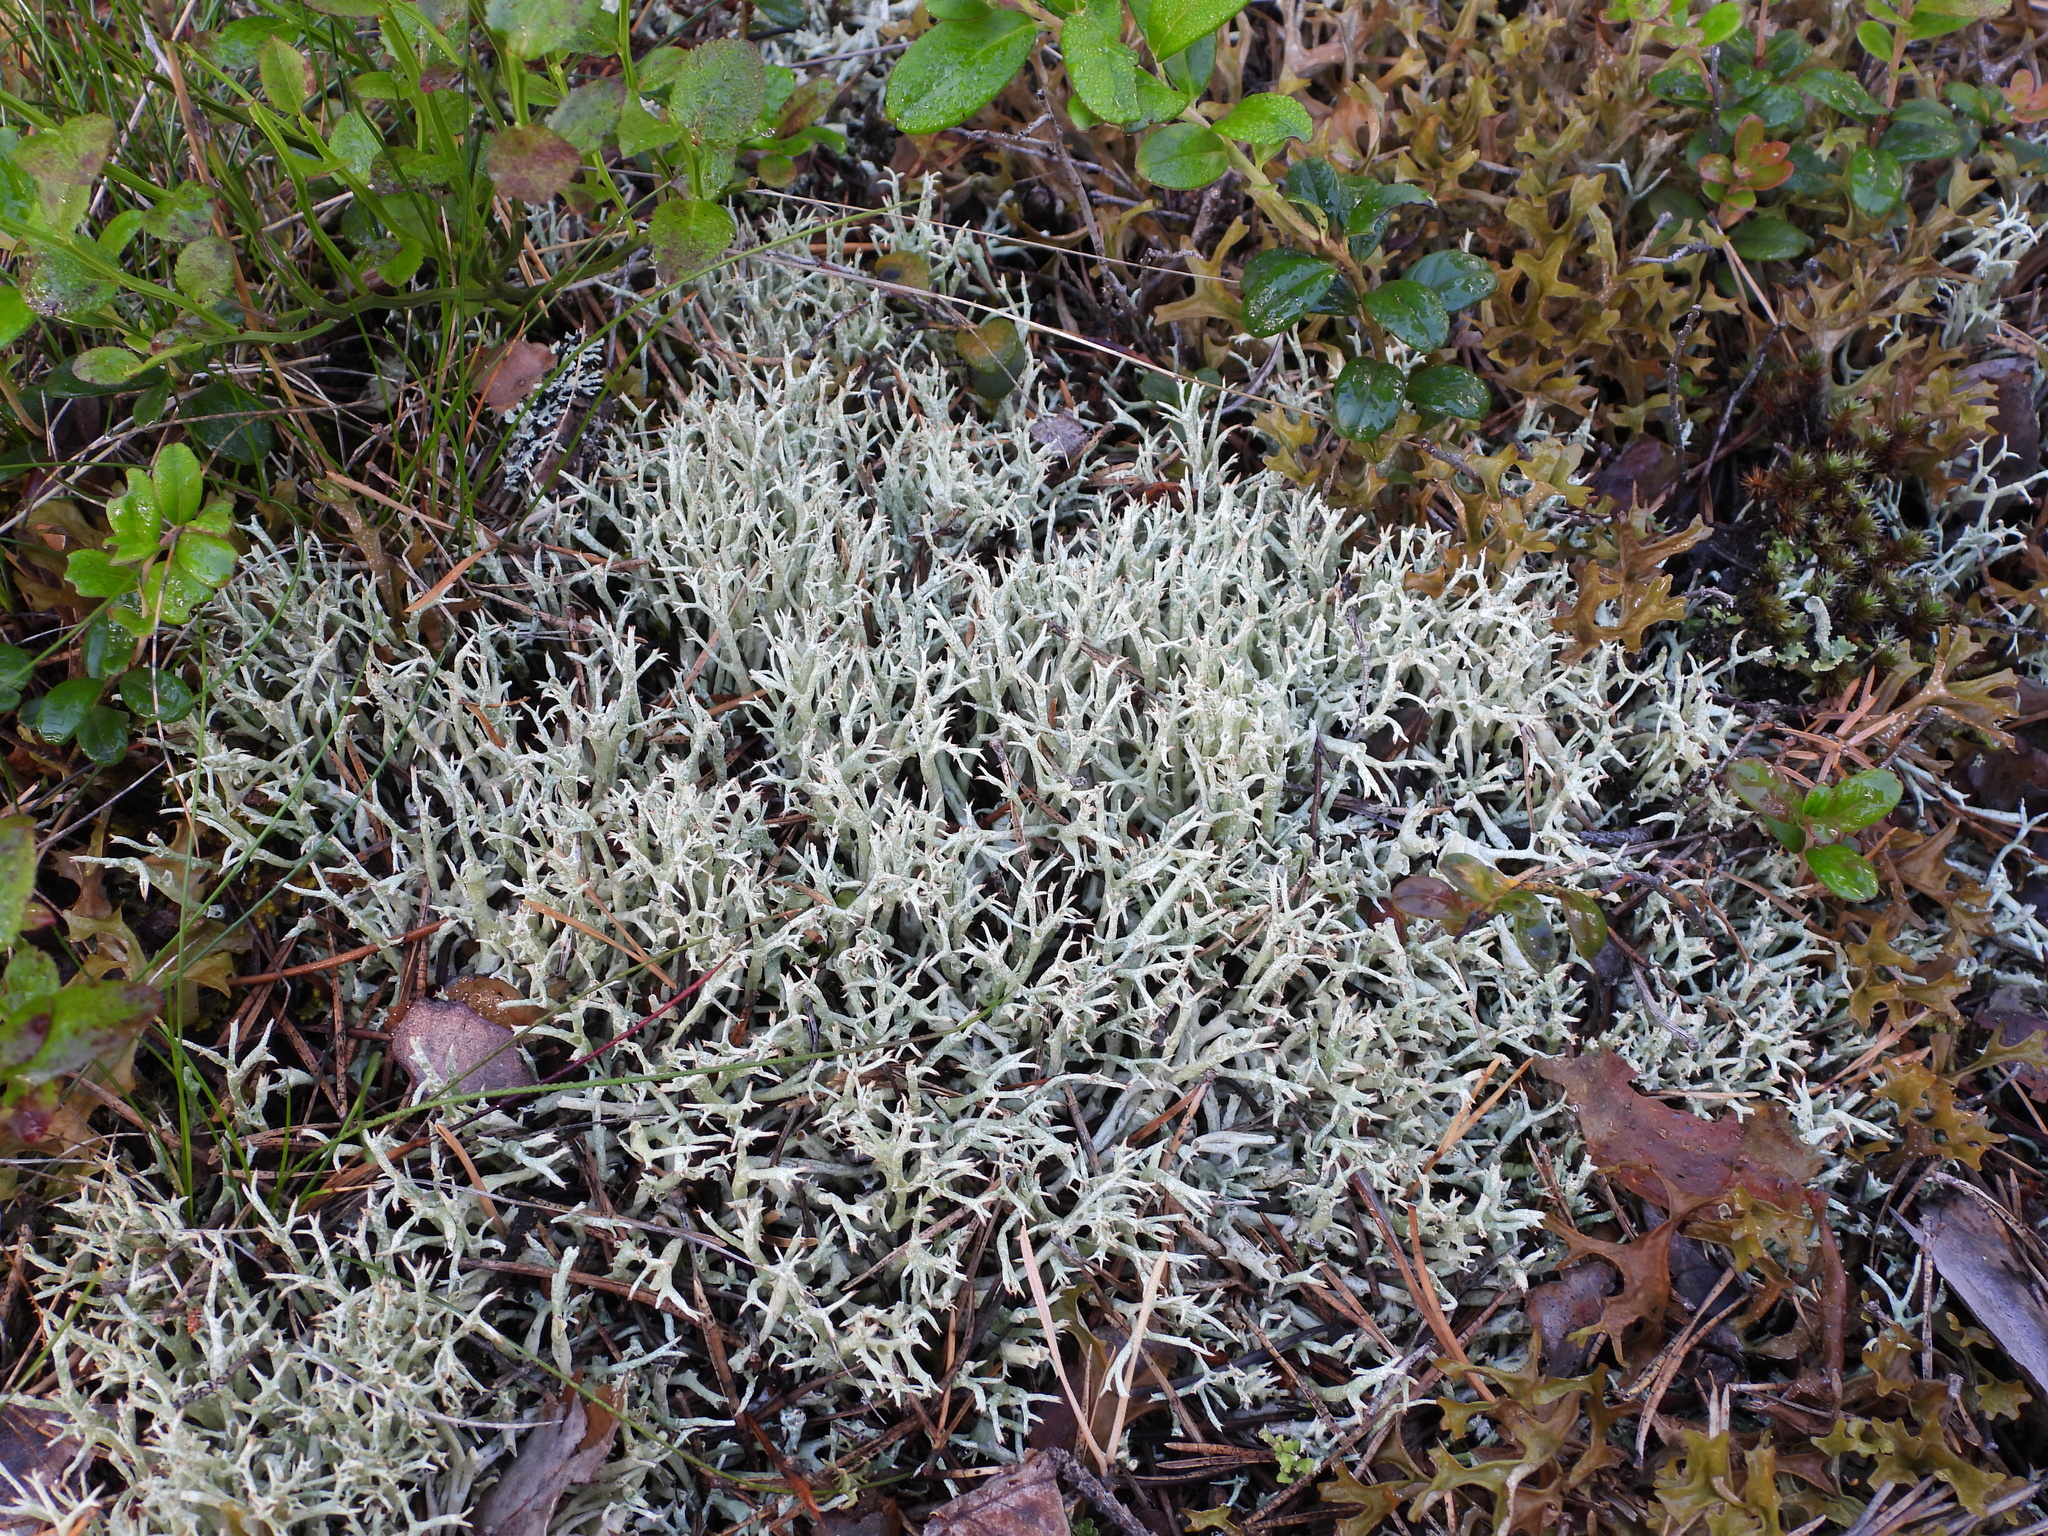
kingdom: Fungi
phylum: Ascomycota
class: Lecanoromycetes
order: Lecanorales
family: Cladoniaceae
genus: Cladonia
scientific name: Cladonia uncialis
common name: Thorn lichen
